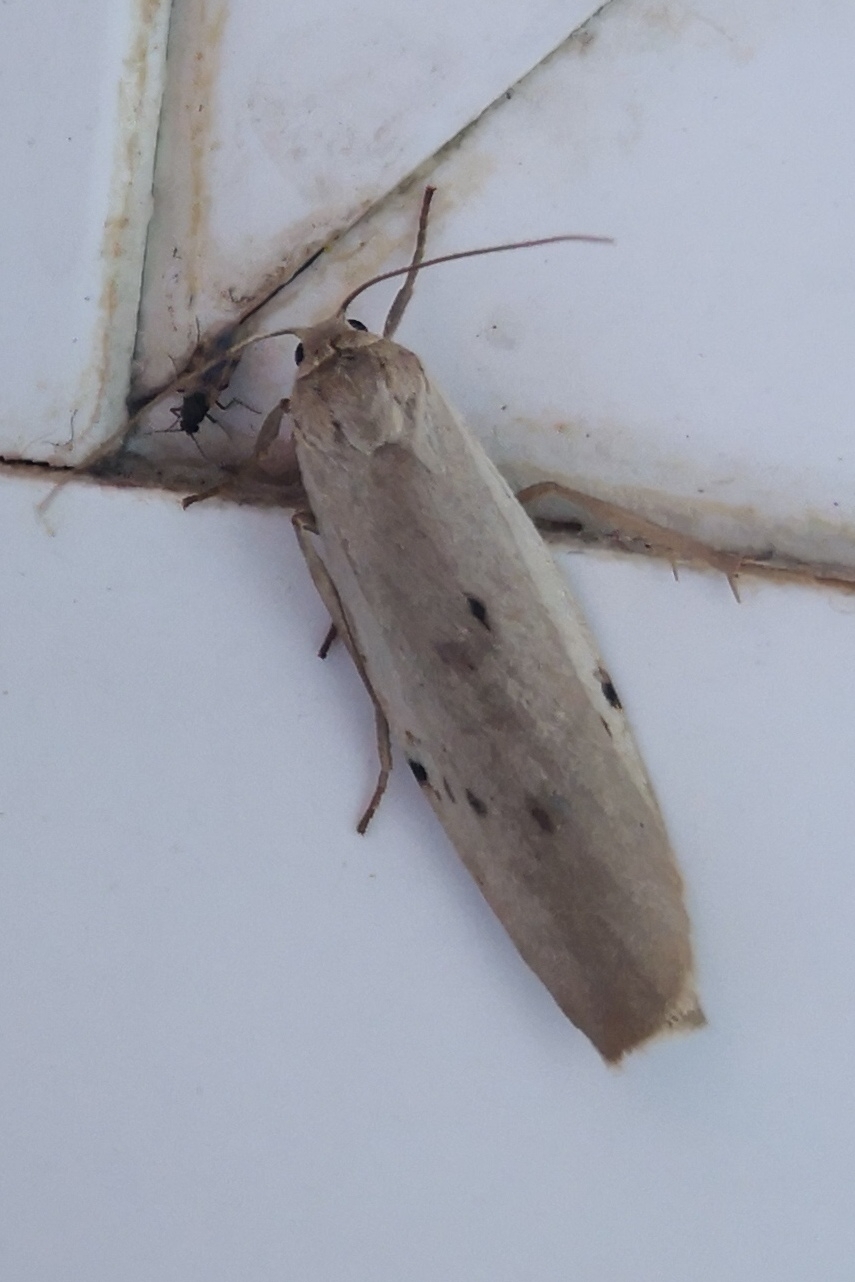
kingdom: Animalia
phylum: Arthropoda
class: Insecta
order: Lepidoptera
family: Erebidae
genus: Pelosia
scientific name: Pelosia muscerda
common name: Dotted footman
